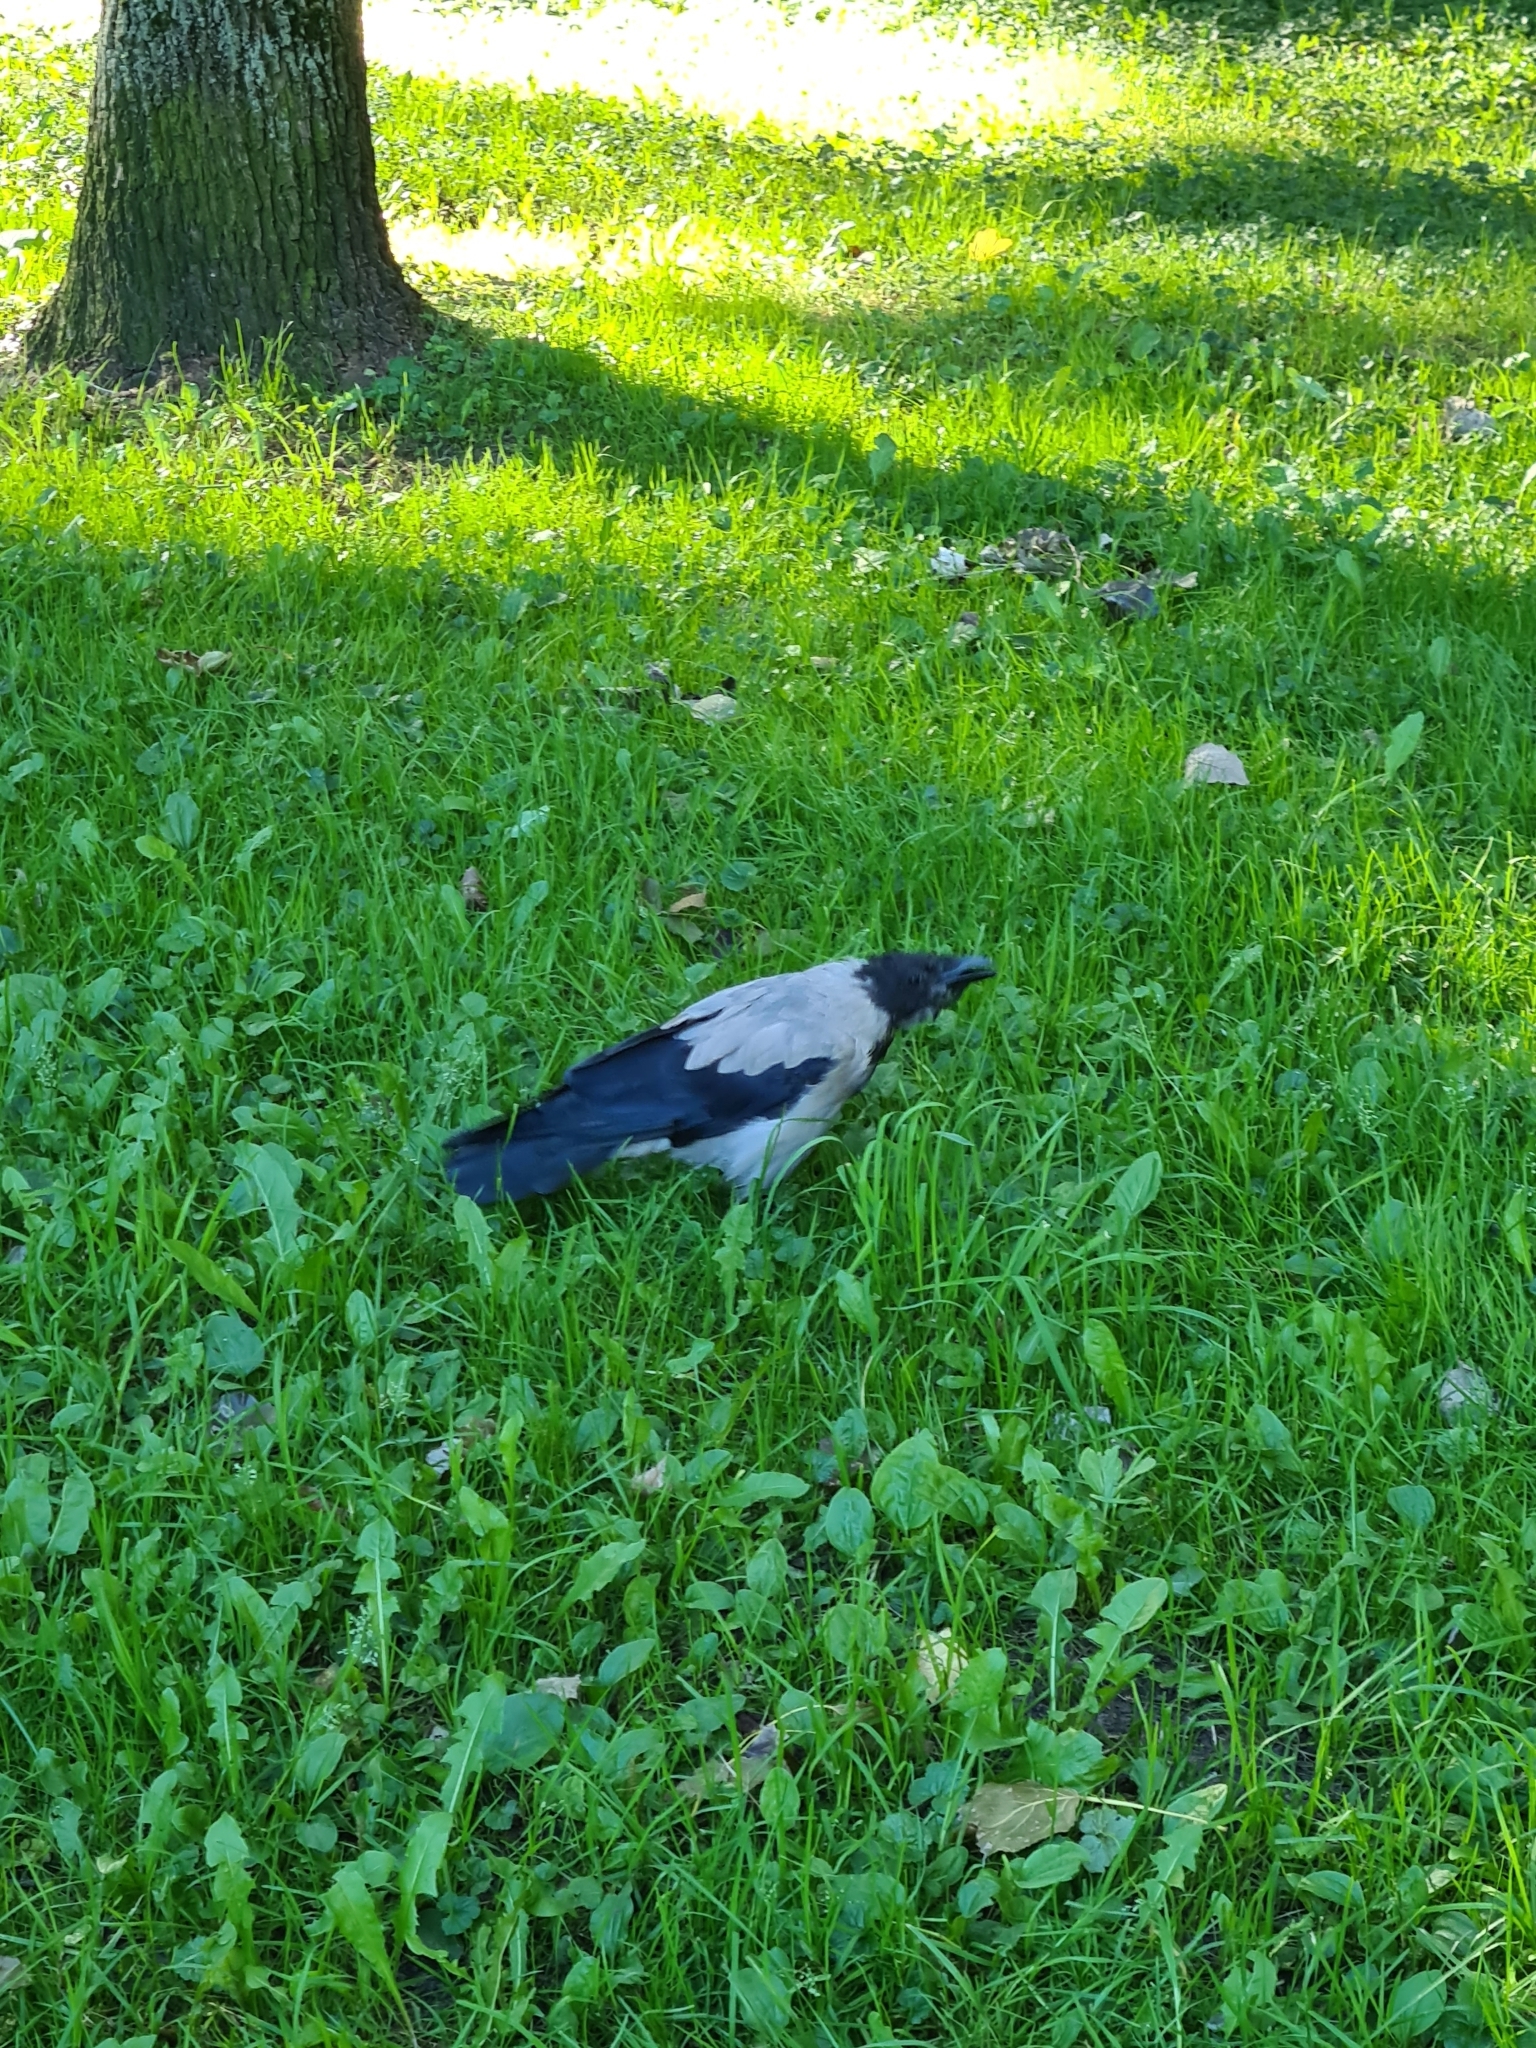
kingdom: Animalia
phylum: Chordata
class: Aves
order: Passeriformes
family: Corvidae
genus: Corvus
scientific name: Corvus cornix
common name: Hooded crow
